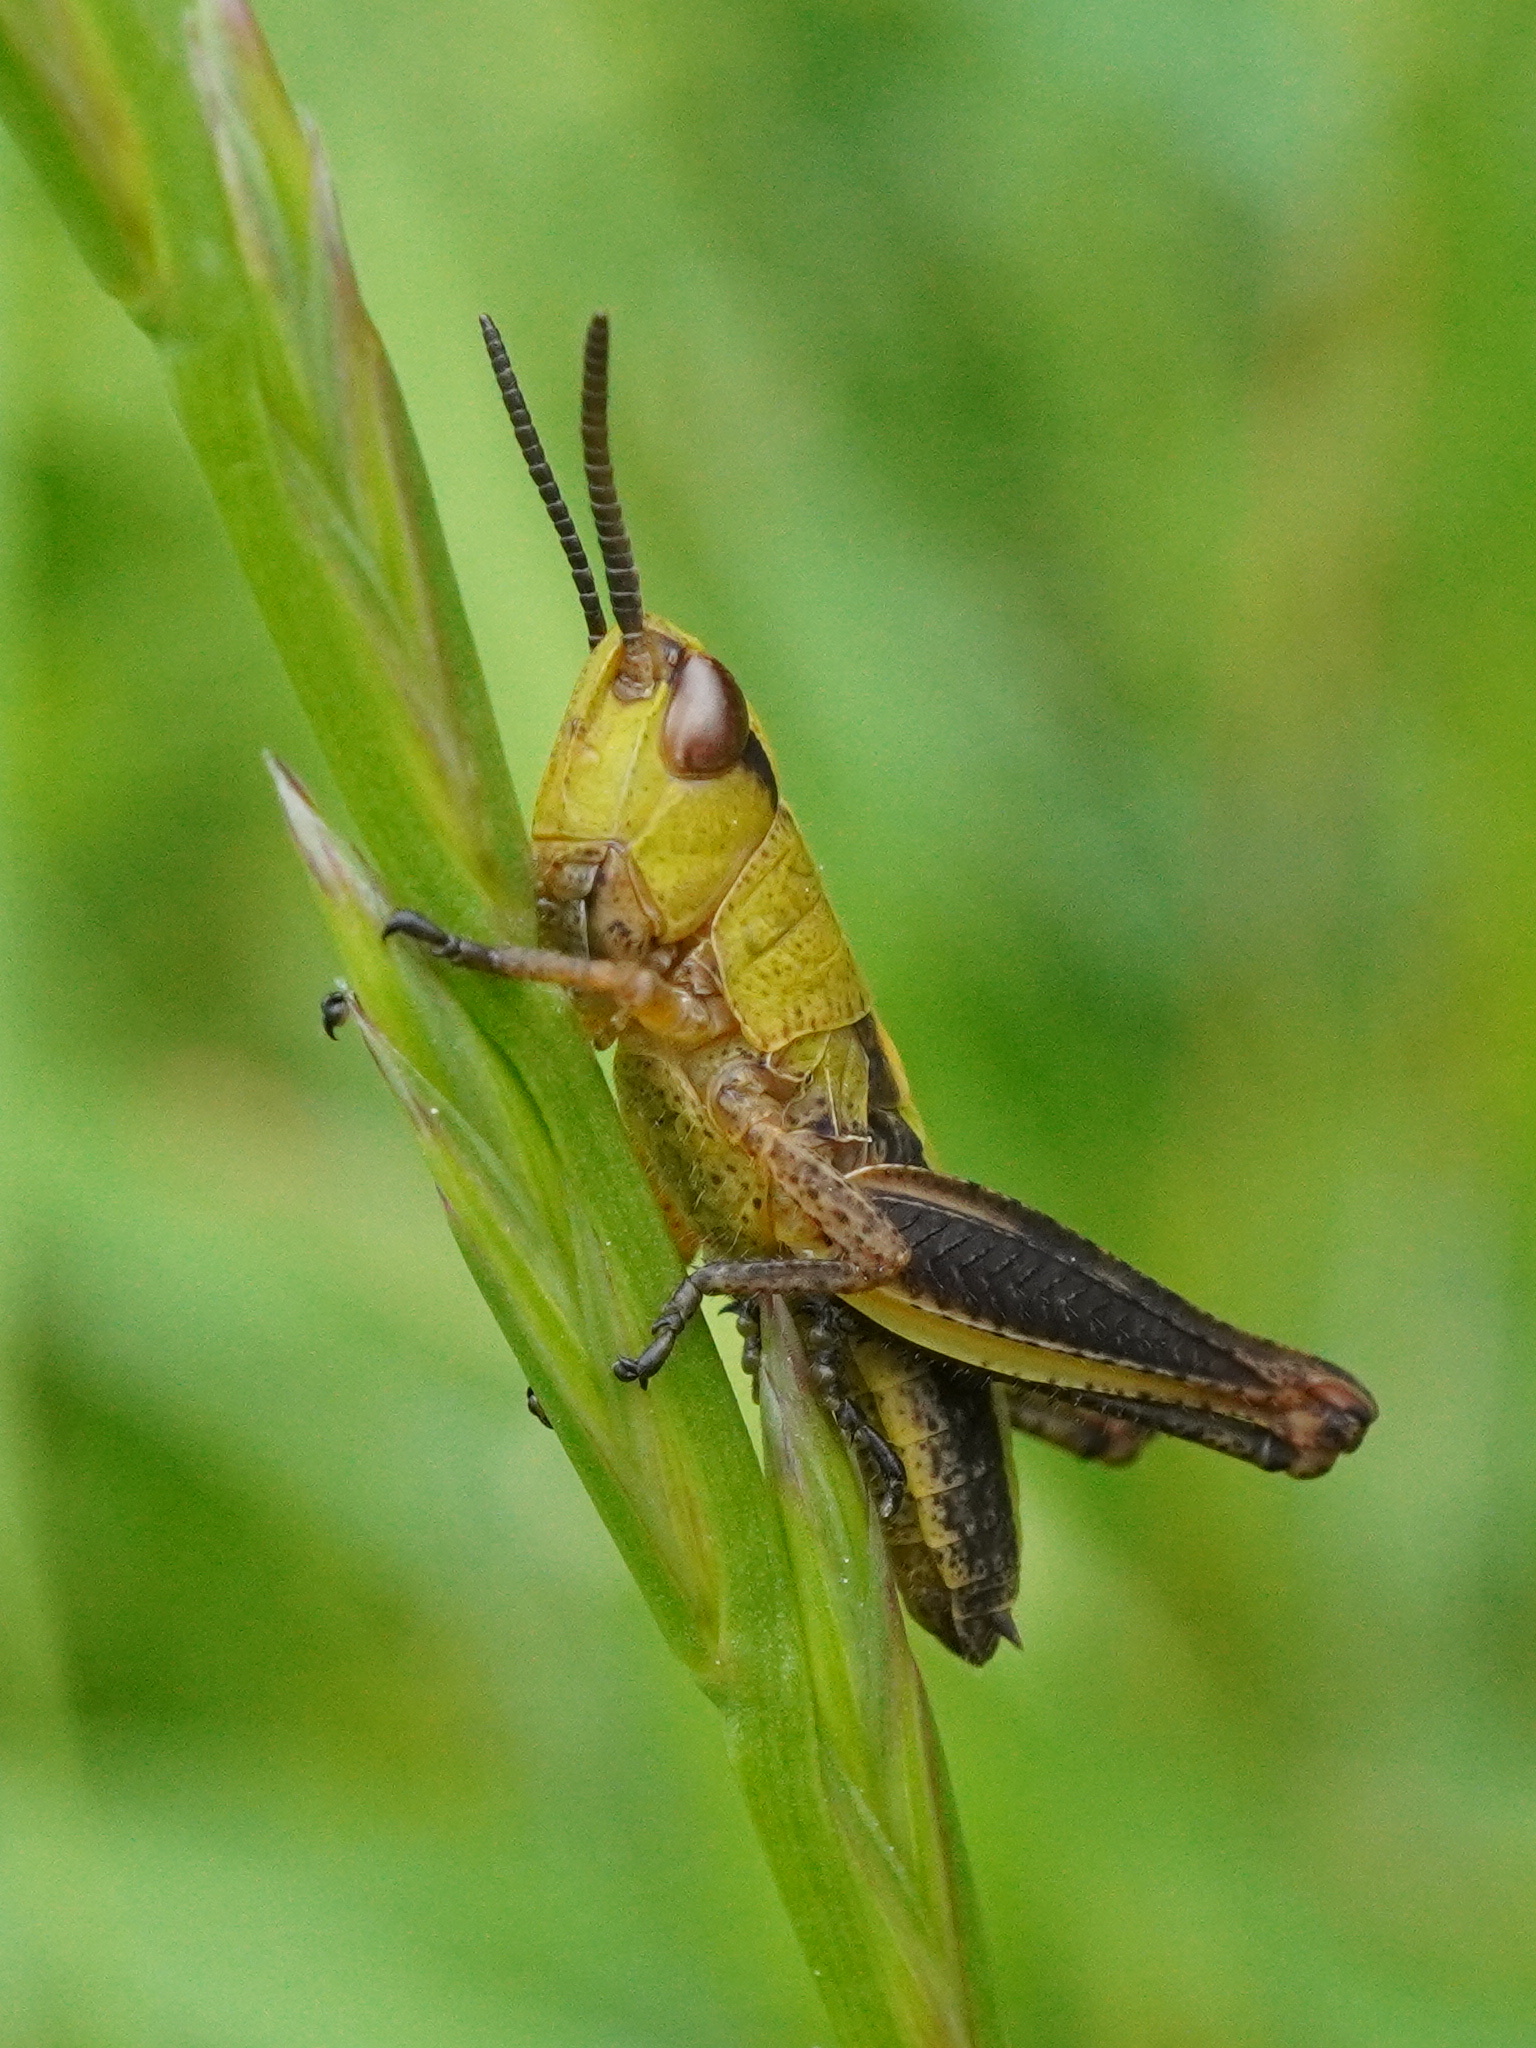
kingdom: Animalia
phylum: Arthropoda
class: Insecta
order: Orthoptera
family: Acrididae
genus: Pseudochorthippus
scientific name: Pseudochorthippus parallelus
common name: Meadow grasshopper
